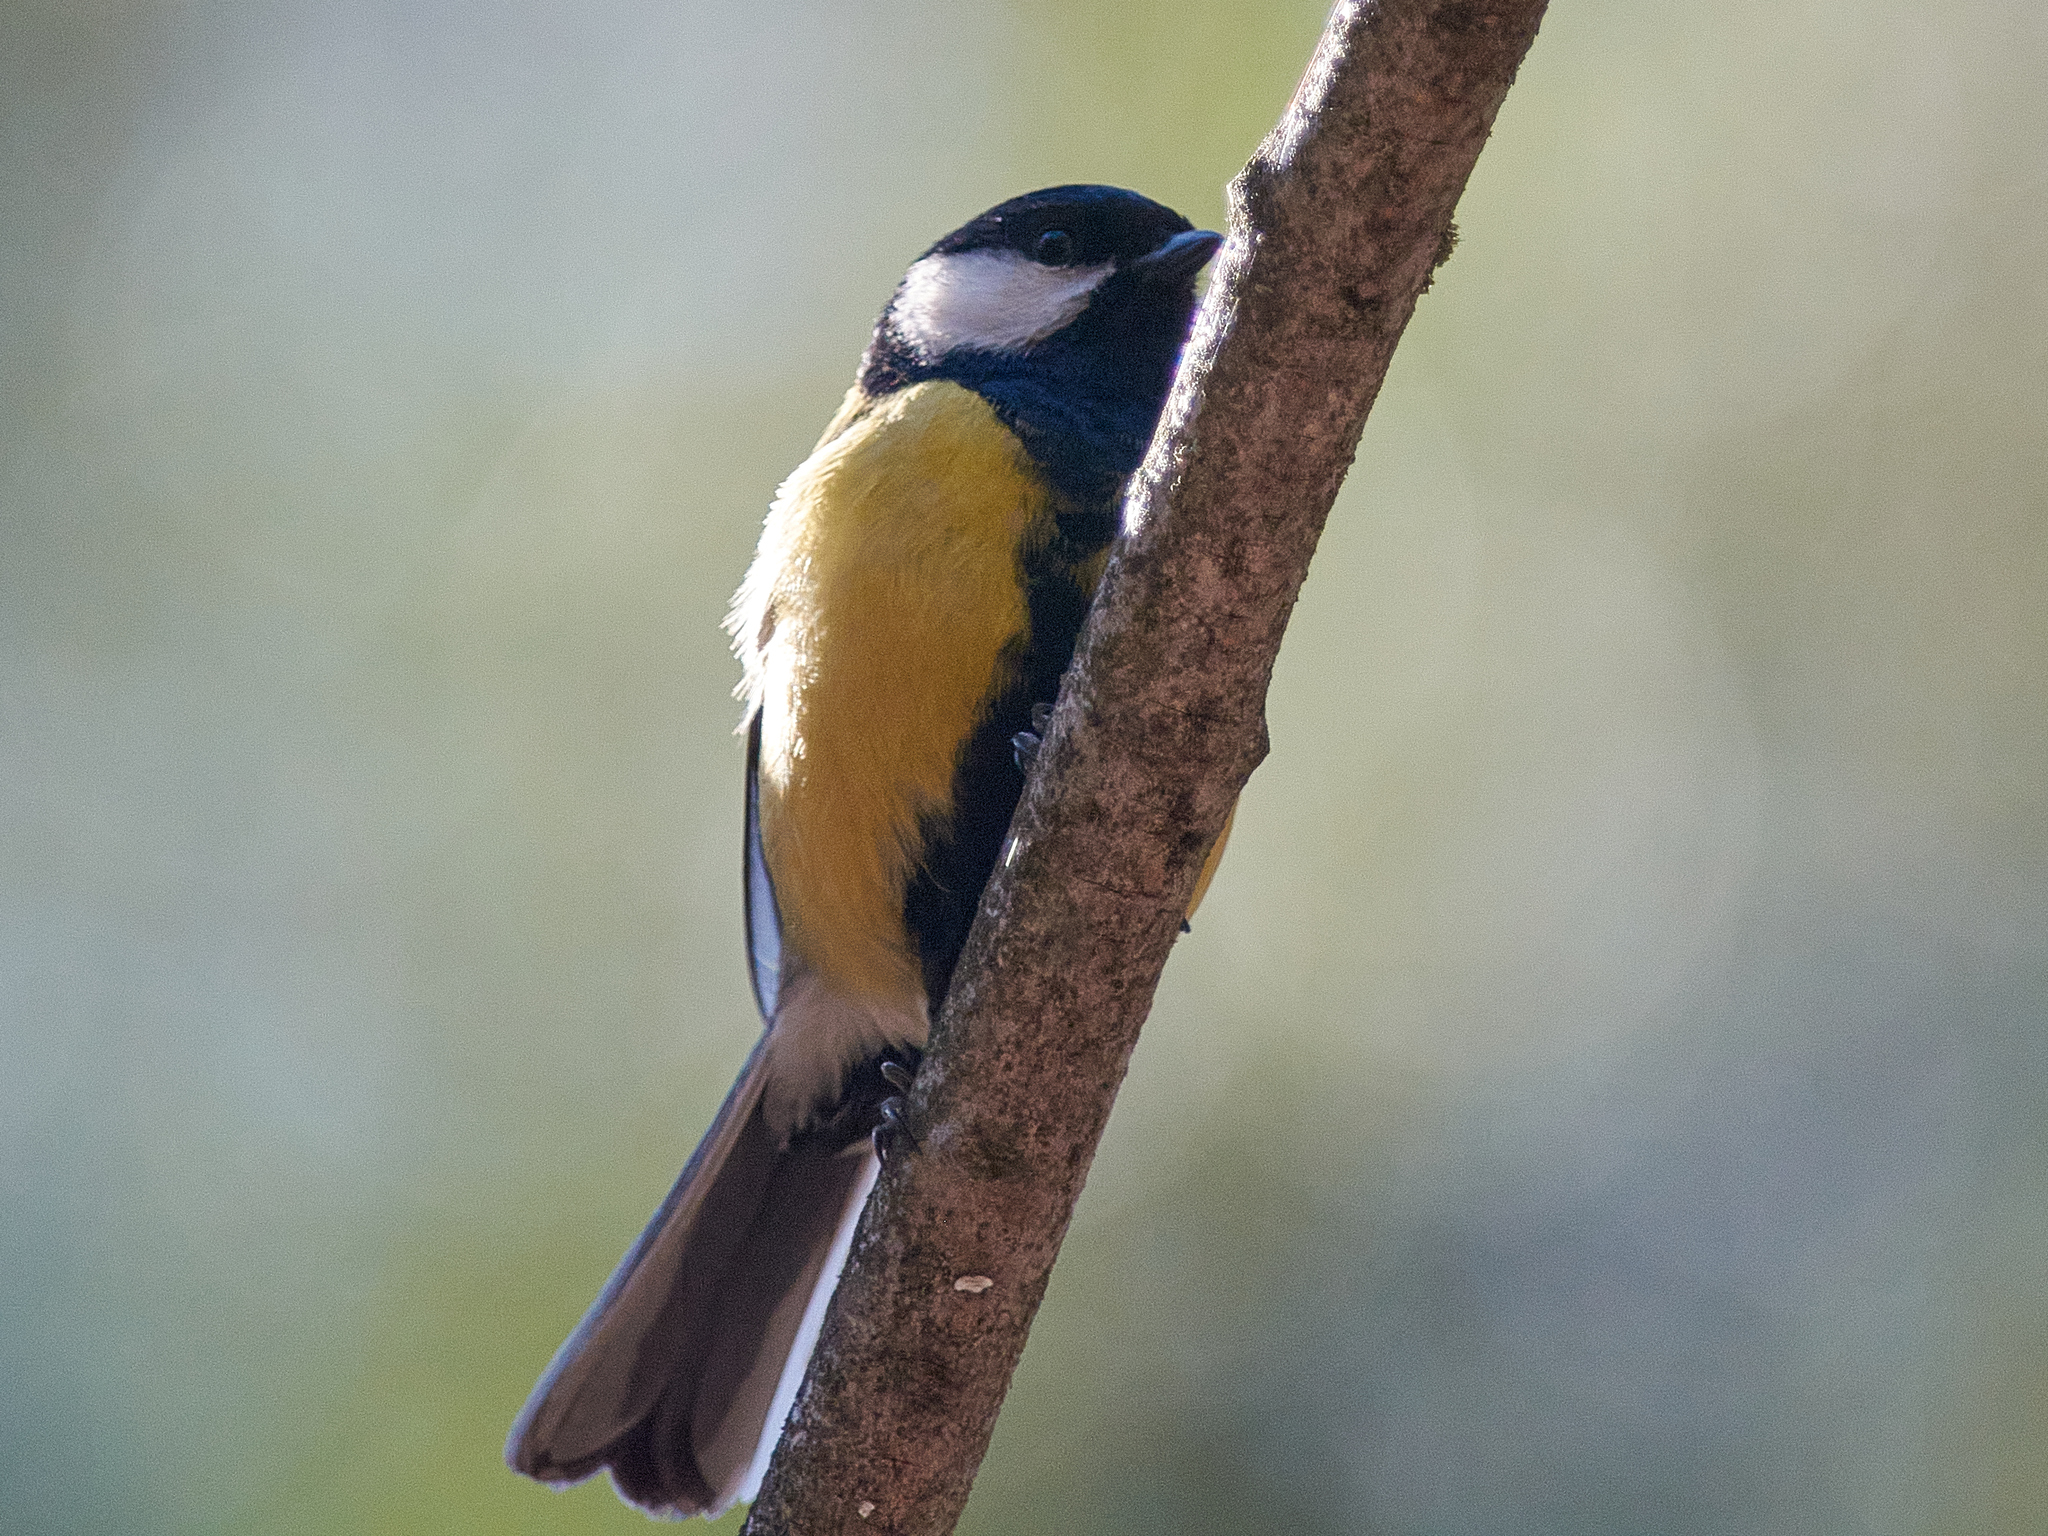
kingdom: Animalia
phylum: Chordata
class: Aves
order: Passeriformes
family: Paridae
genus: Parus
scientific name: Parus major
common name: Great tit
